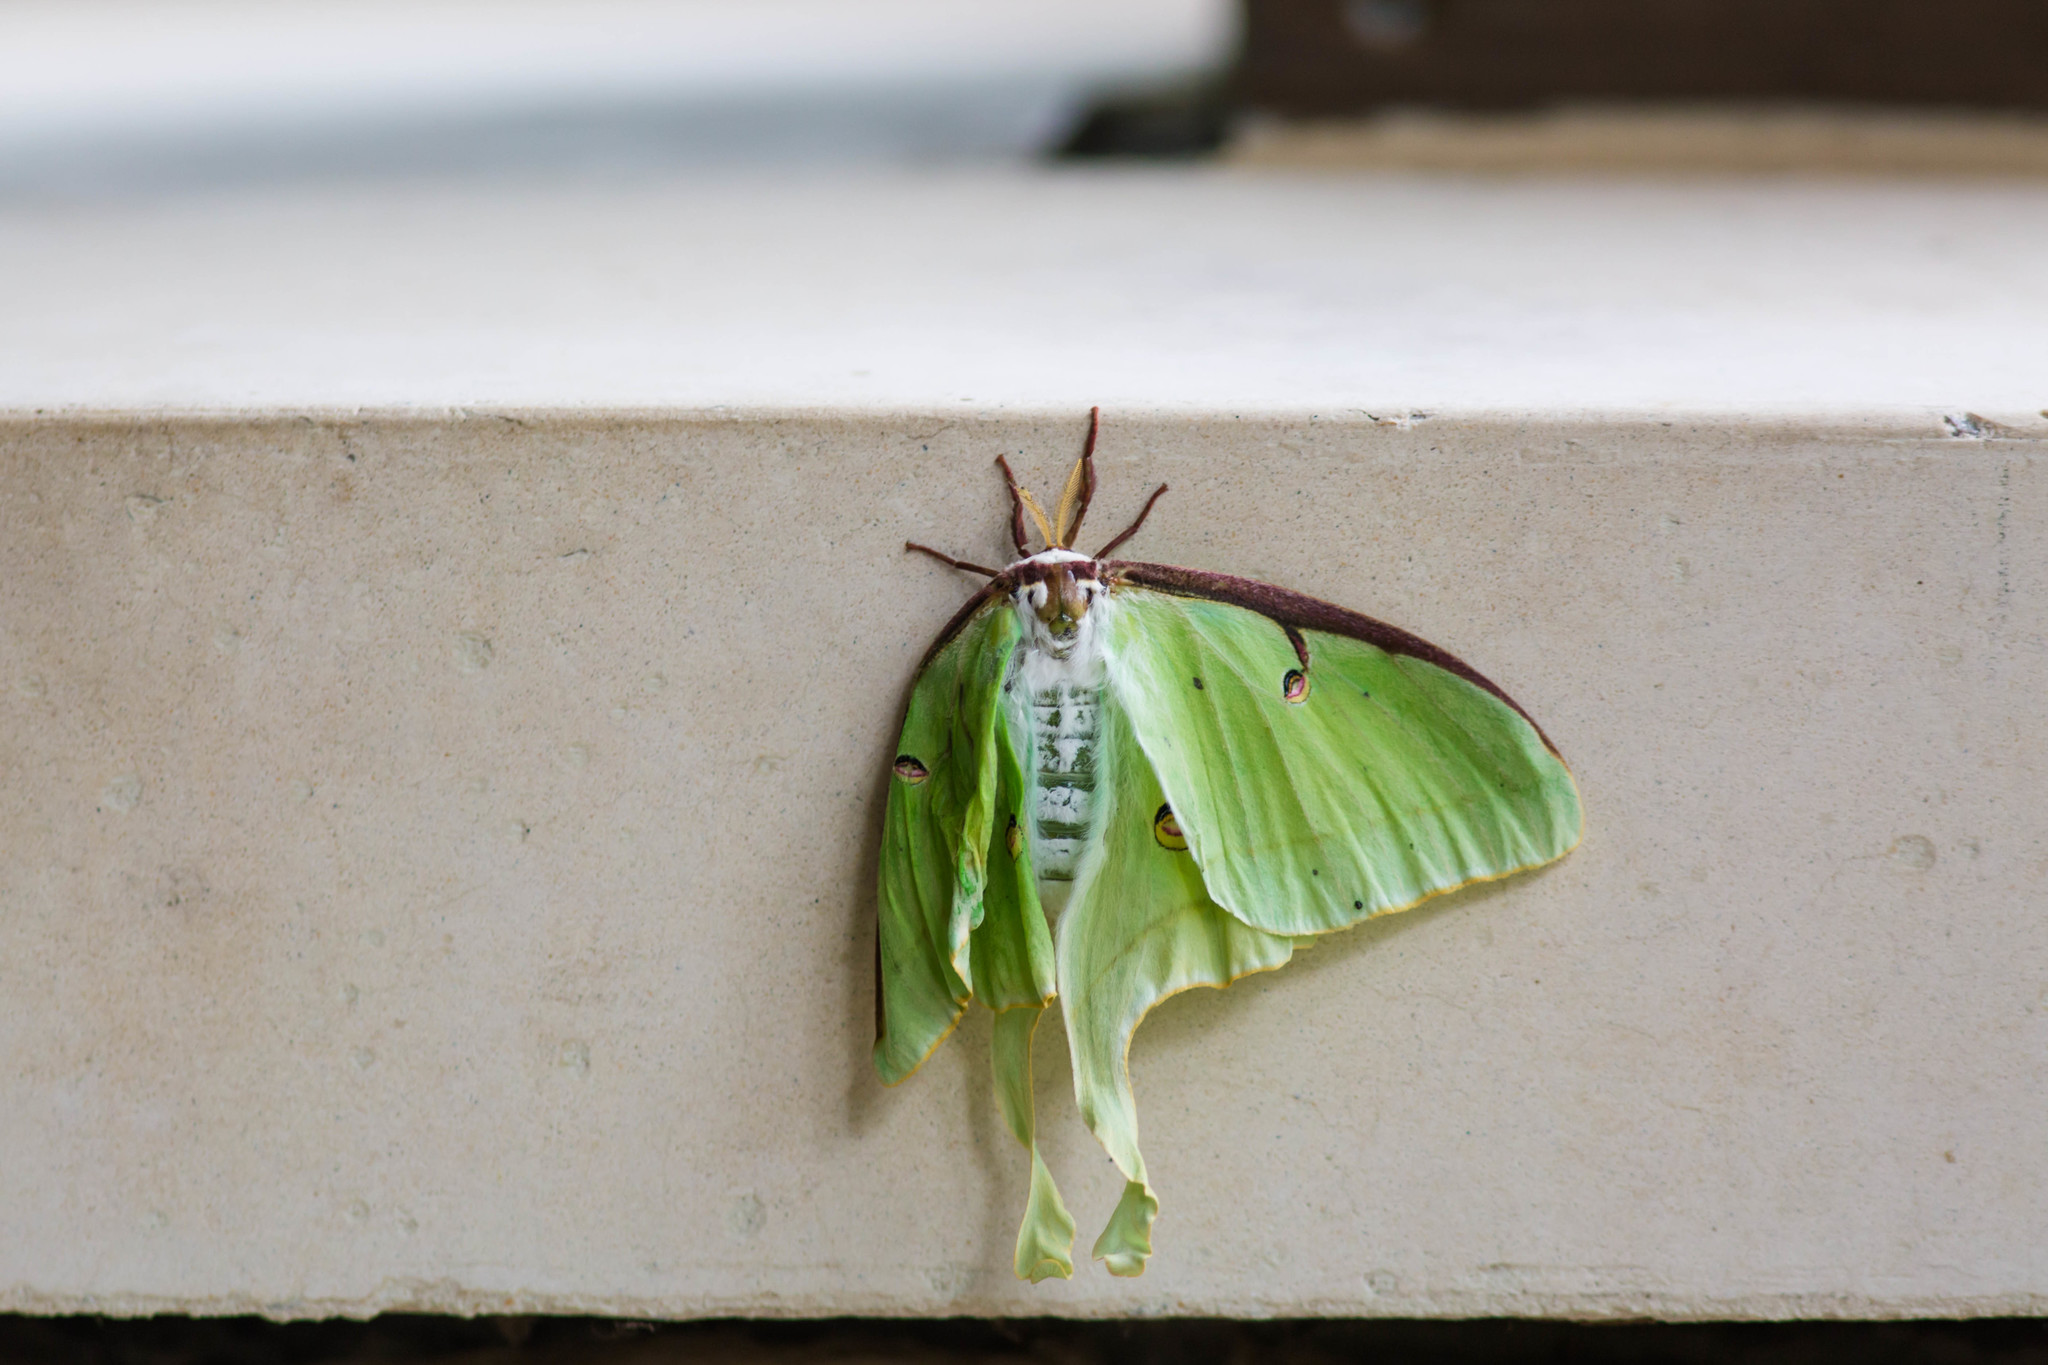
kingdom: Animalia
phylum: Arthropoda
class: Insecta
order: Lepidoptera
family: Saturniidae
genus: Actias
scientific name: Actias luna
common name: Luna moth
